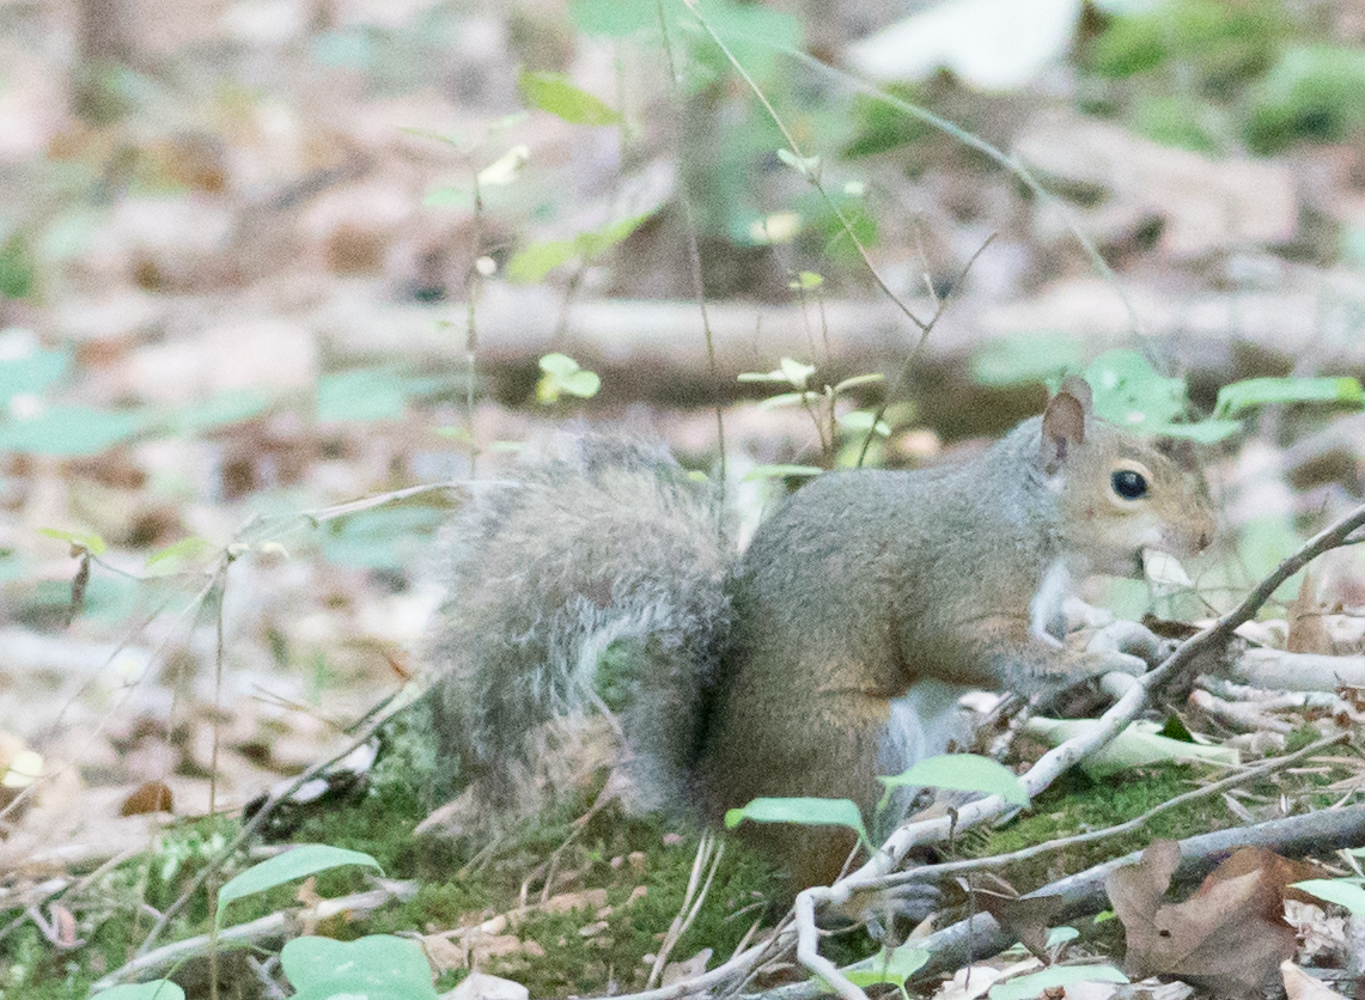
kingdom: Animalia
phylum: Chordata
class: Mammalia
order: Rodentia
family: Sciuridae
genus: Sciurus
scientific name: Sciurus carolinensis
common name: Eastern gray squirrel
